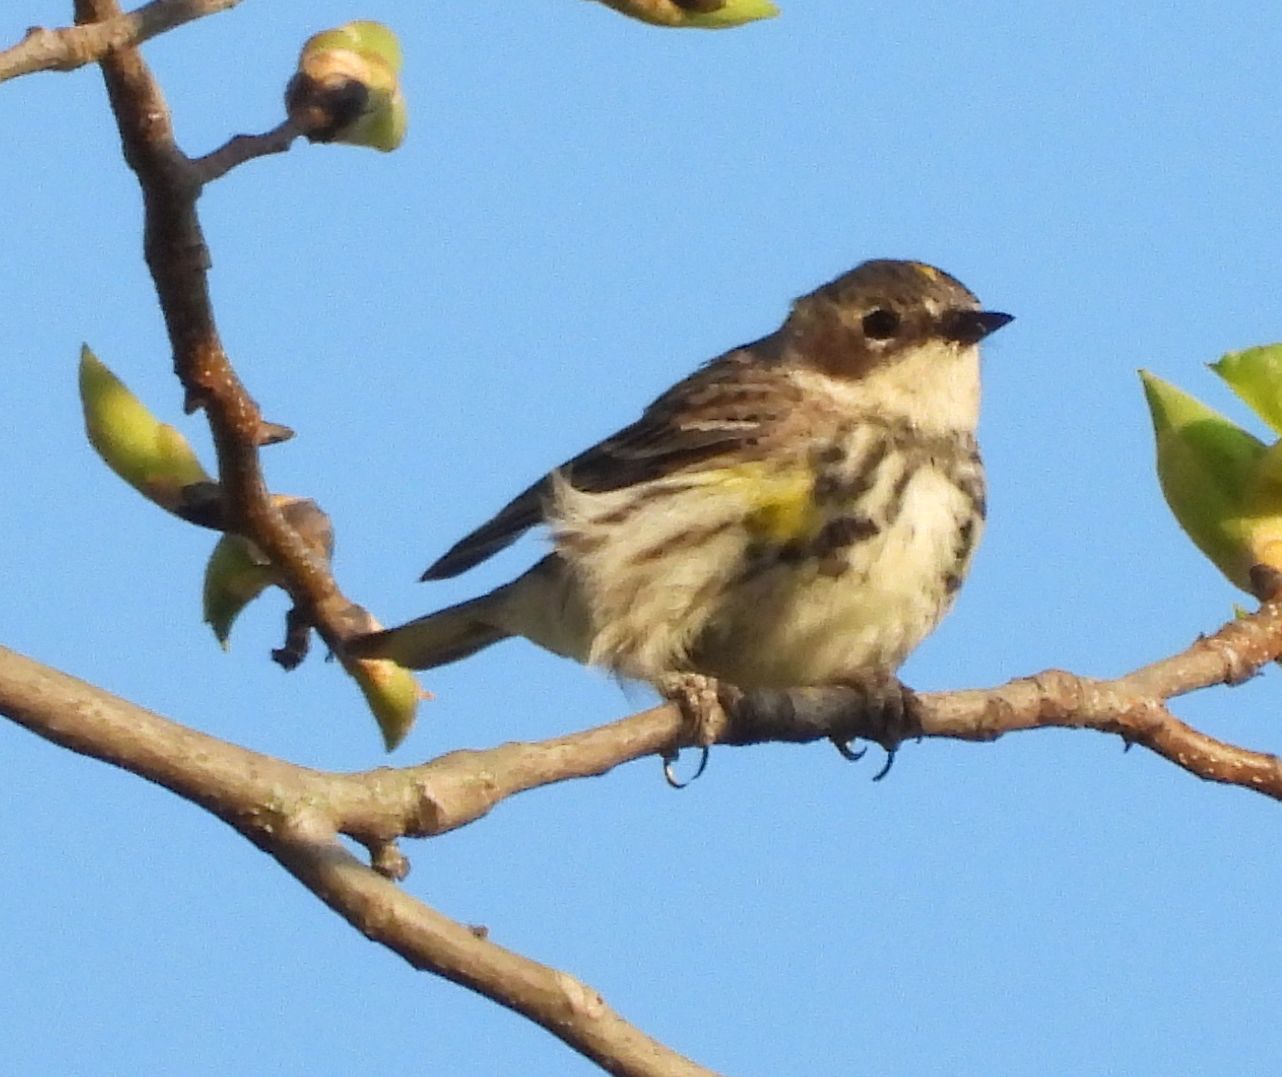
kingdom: Animalia
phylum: Chordata
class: Aves
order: Passeriformes
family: Parulidae
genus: Setophaga
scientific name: Setophaga coronata
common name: Myrtle warbler
